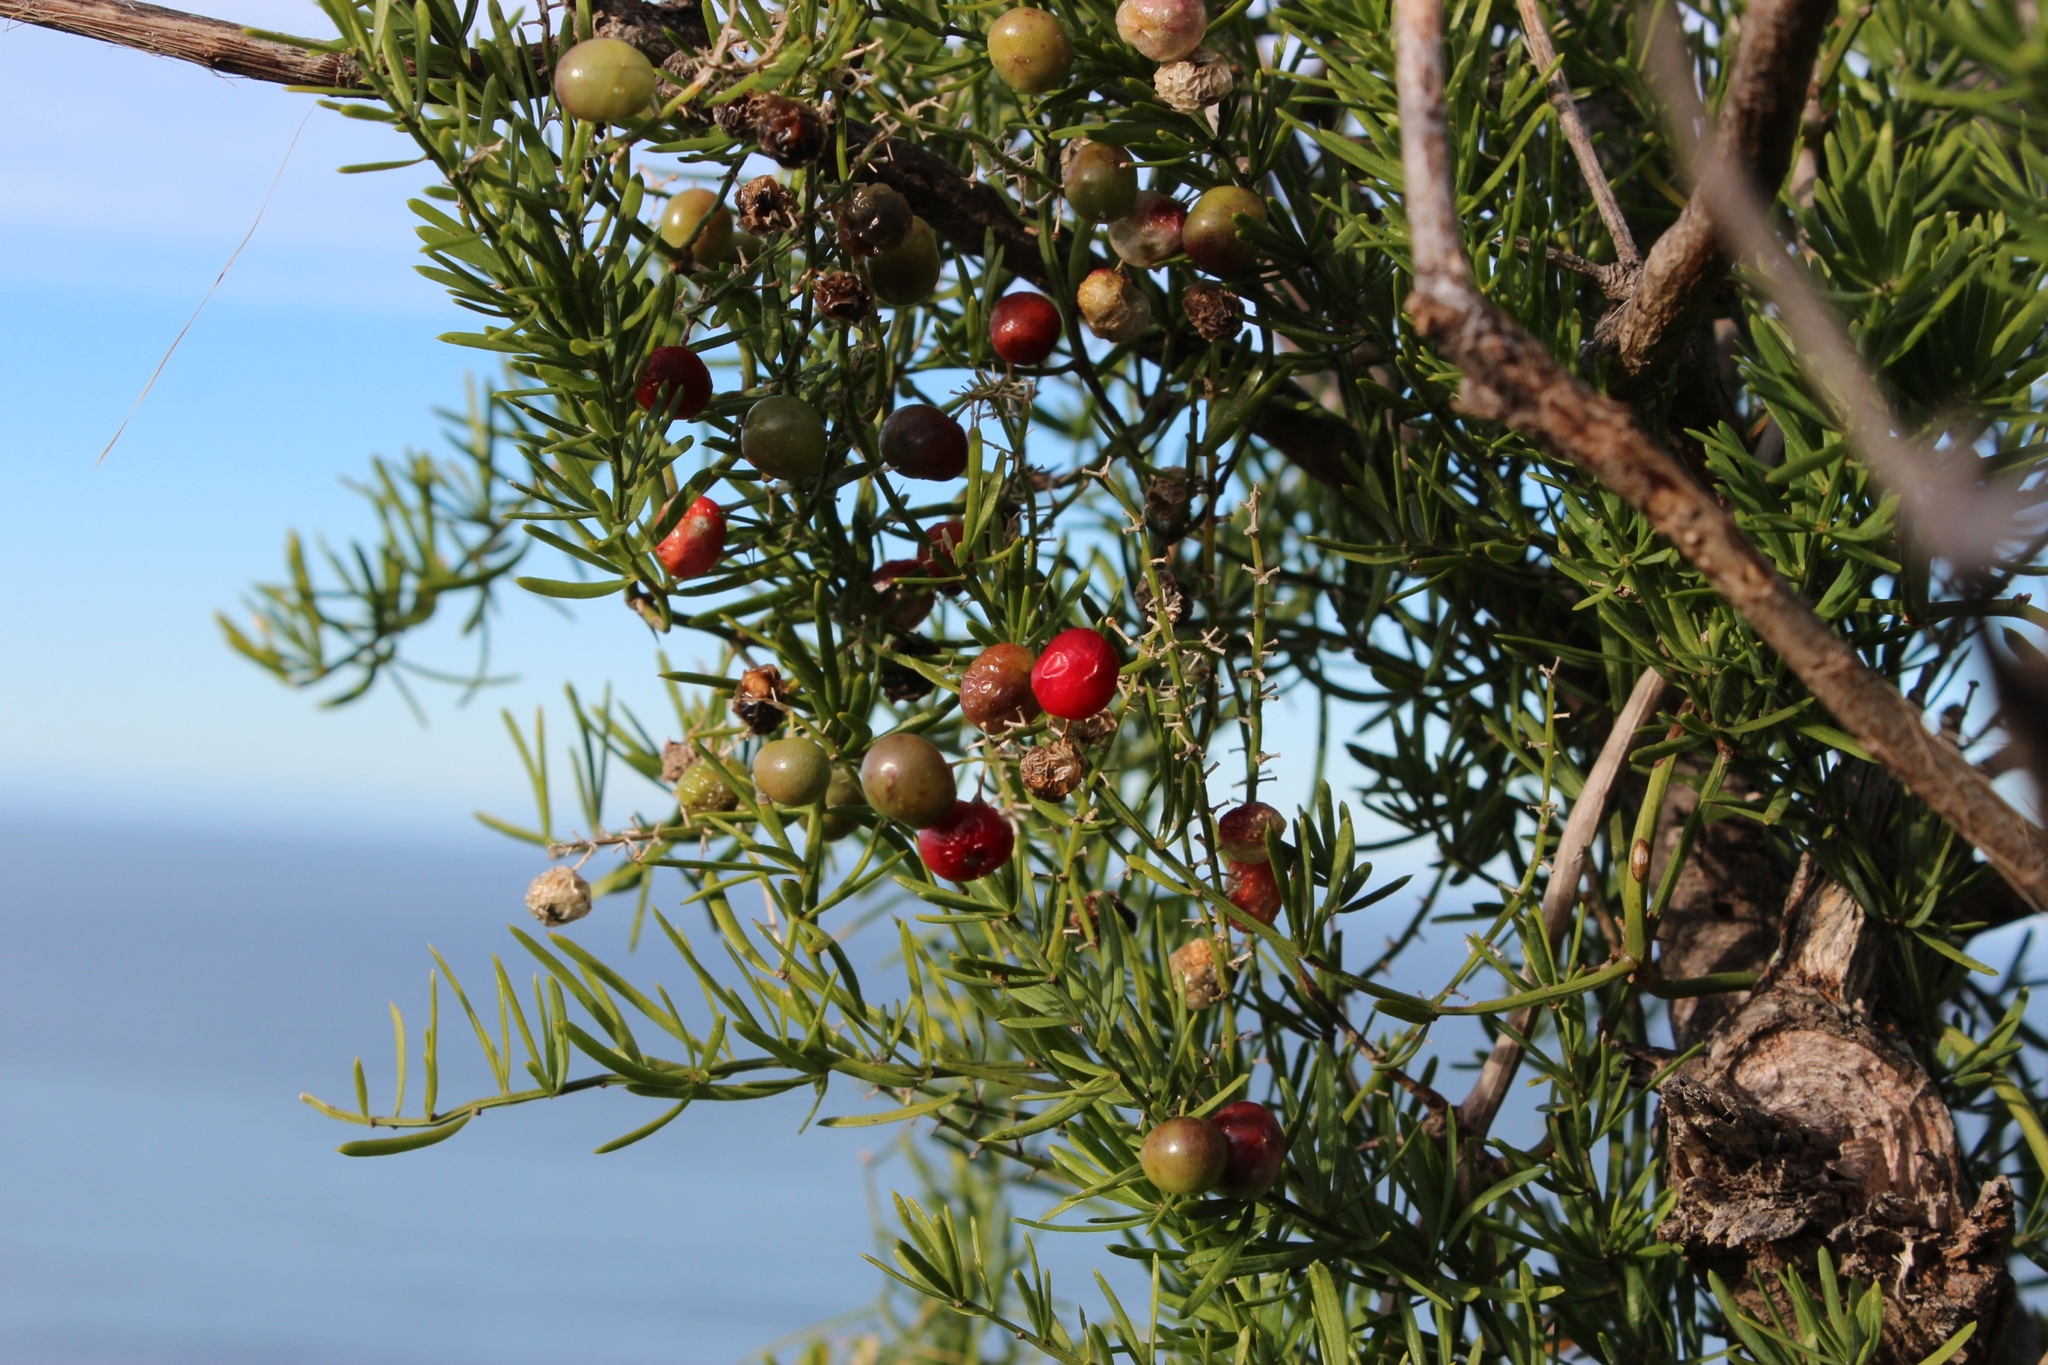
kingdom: Plantae
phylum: Tracheophyta
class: Liliopsida
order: Asparagales
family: Asparagaceae
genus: Asparagus
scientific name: Asparagus aethiopicus
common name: Sprenger's asparagus fern
